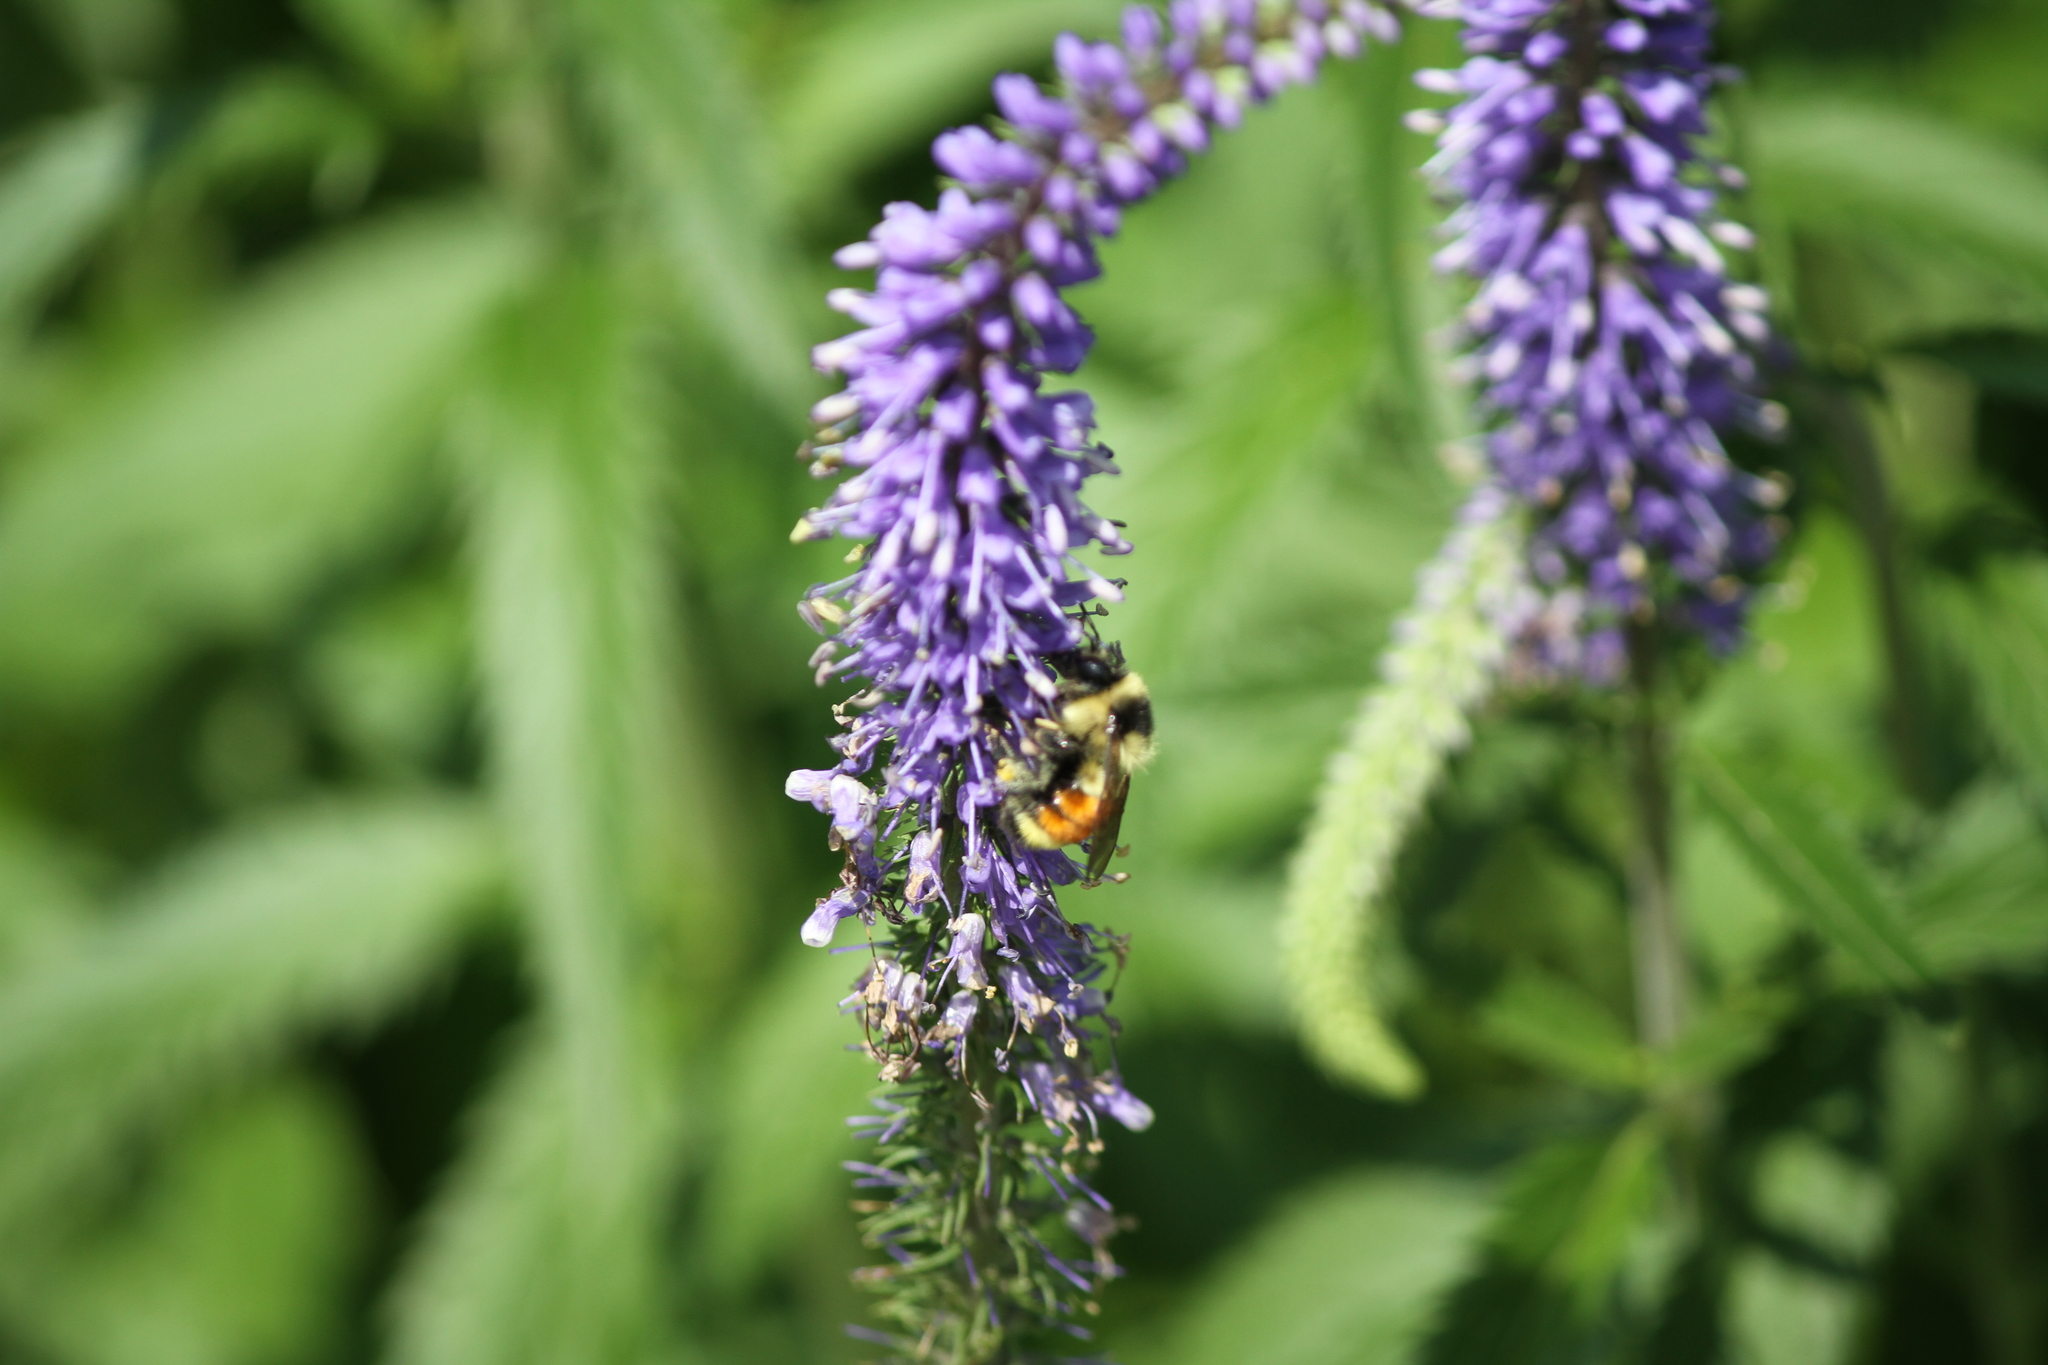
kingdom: Animalia
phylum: Arthropoda
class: Insecta
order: Hymenoptera
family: Apidae
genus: Bombus
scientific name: Bombus ternarius
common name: Tri-colored bumble bee
